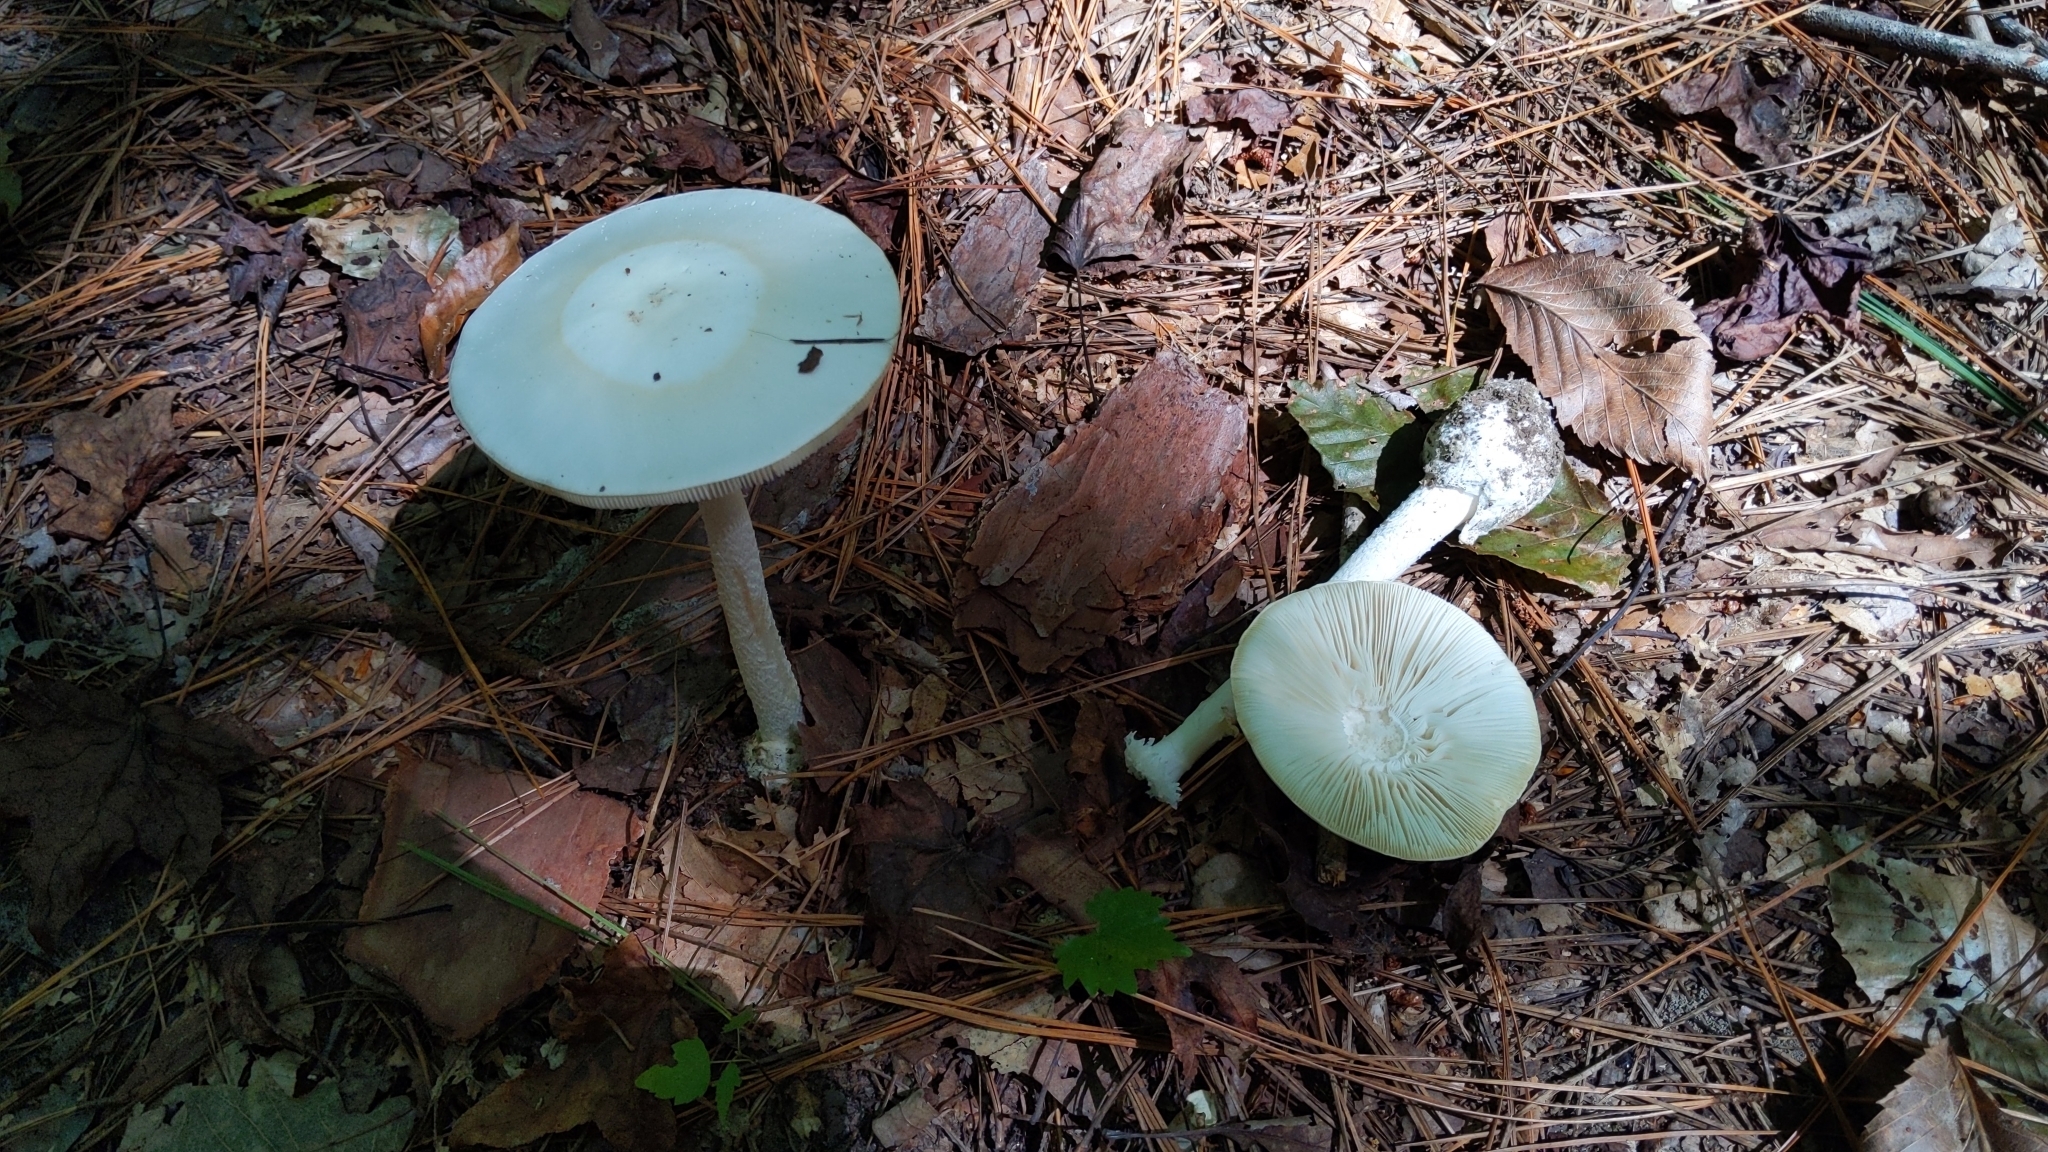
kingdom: Fungi
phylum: Basidiomycota
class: Agaricomycetes
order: Agaricales
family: Amanitaceae
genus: Amanita
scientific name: Amanita abrupta
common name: American abrupt-bulbed lepidella
